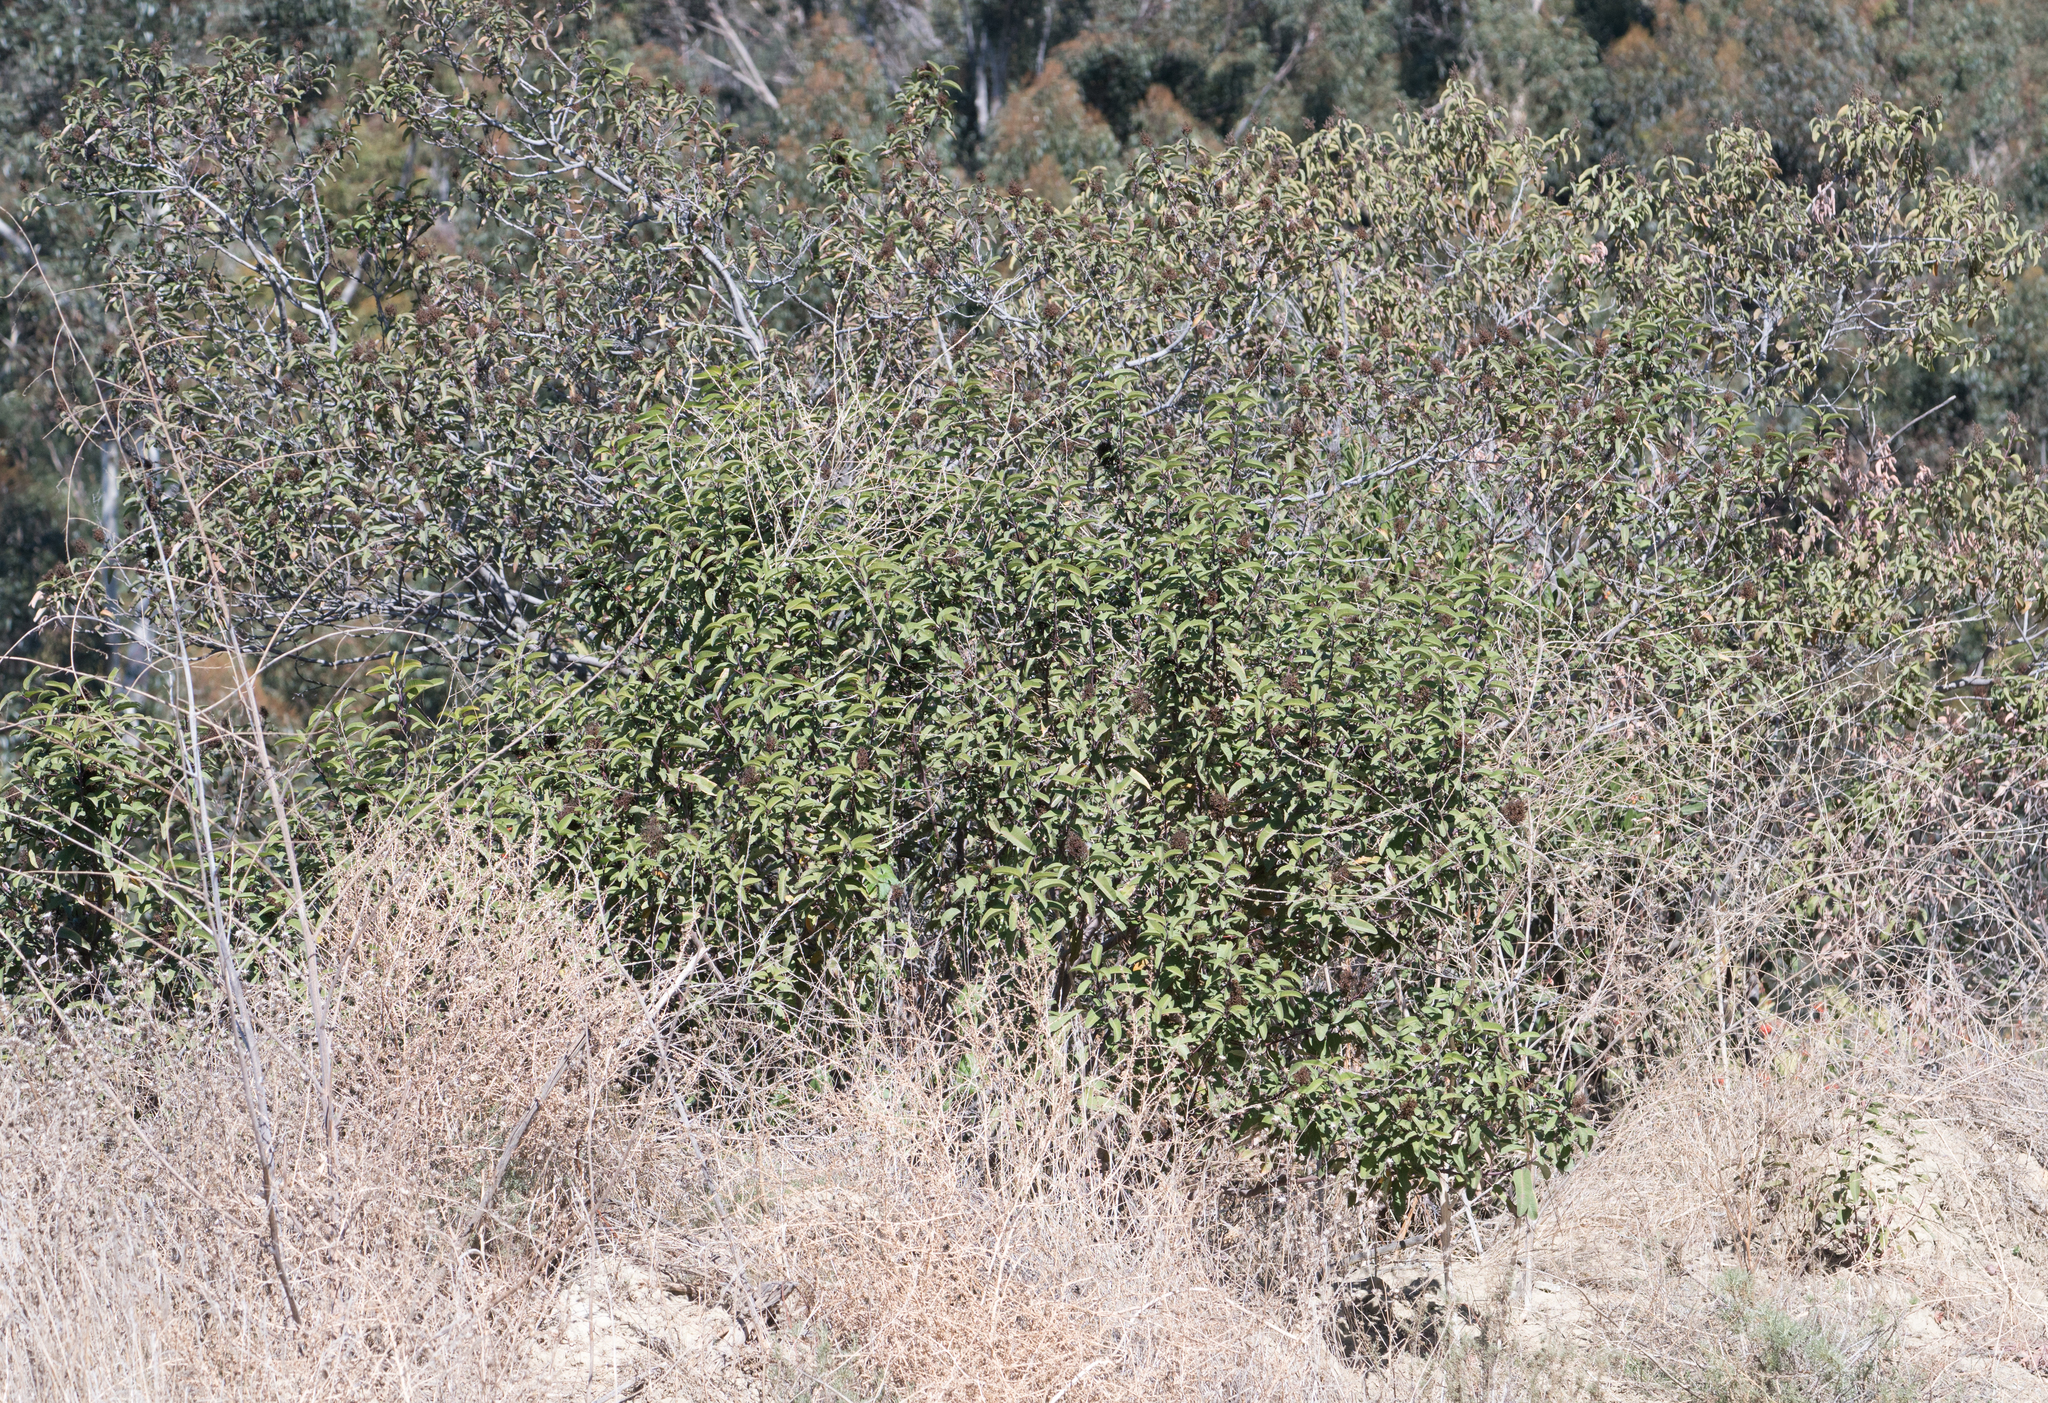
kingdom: Plantae
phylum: Tracheophyta
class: Magnoliopsida
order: Sapindales
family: Anacardiaceae
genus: Malosma
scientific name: Malosma laurina
